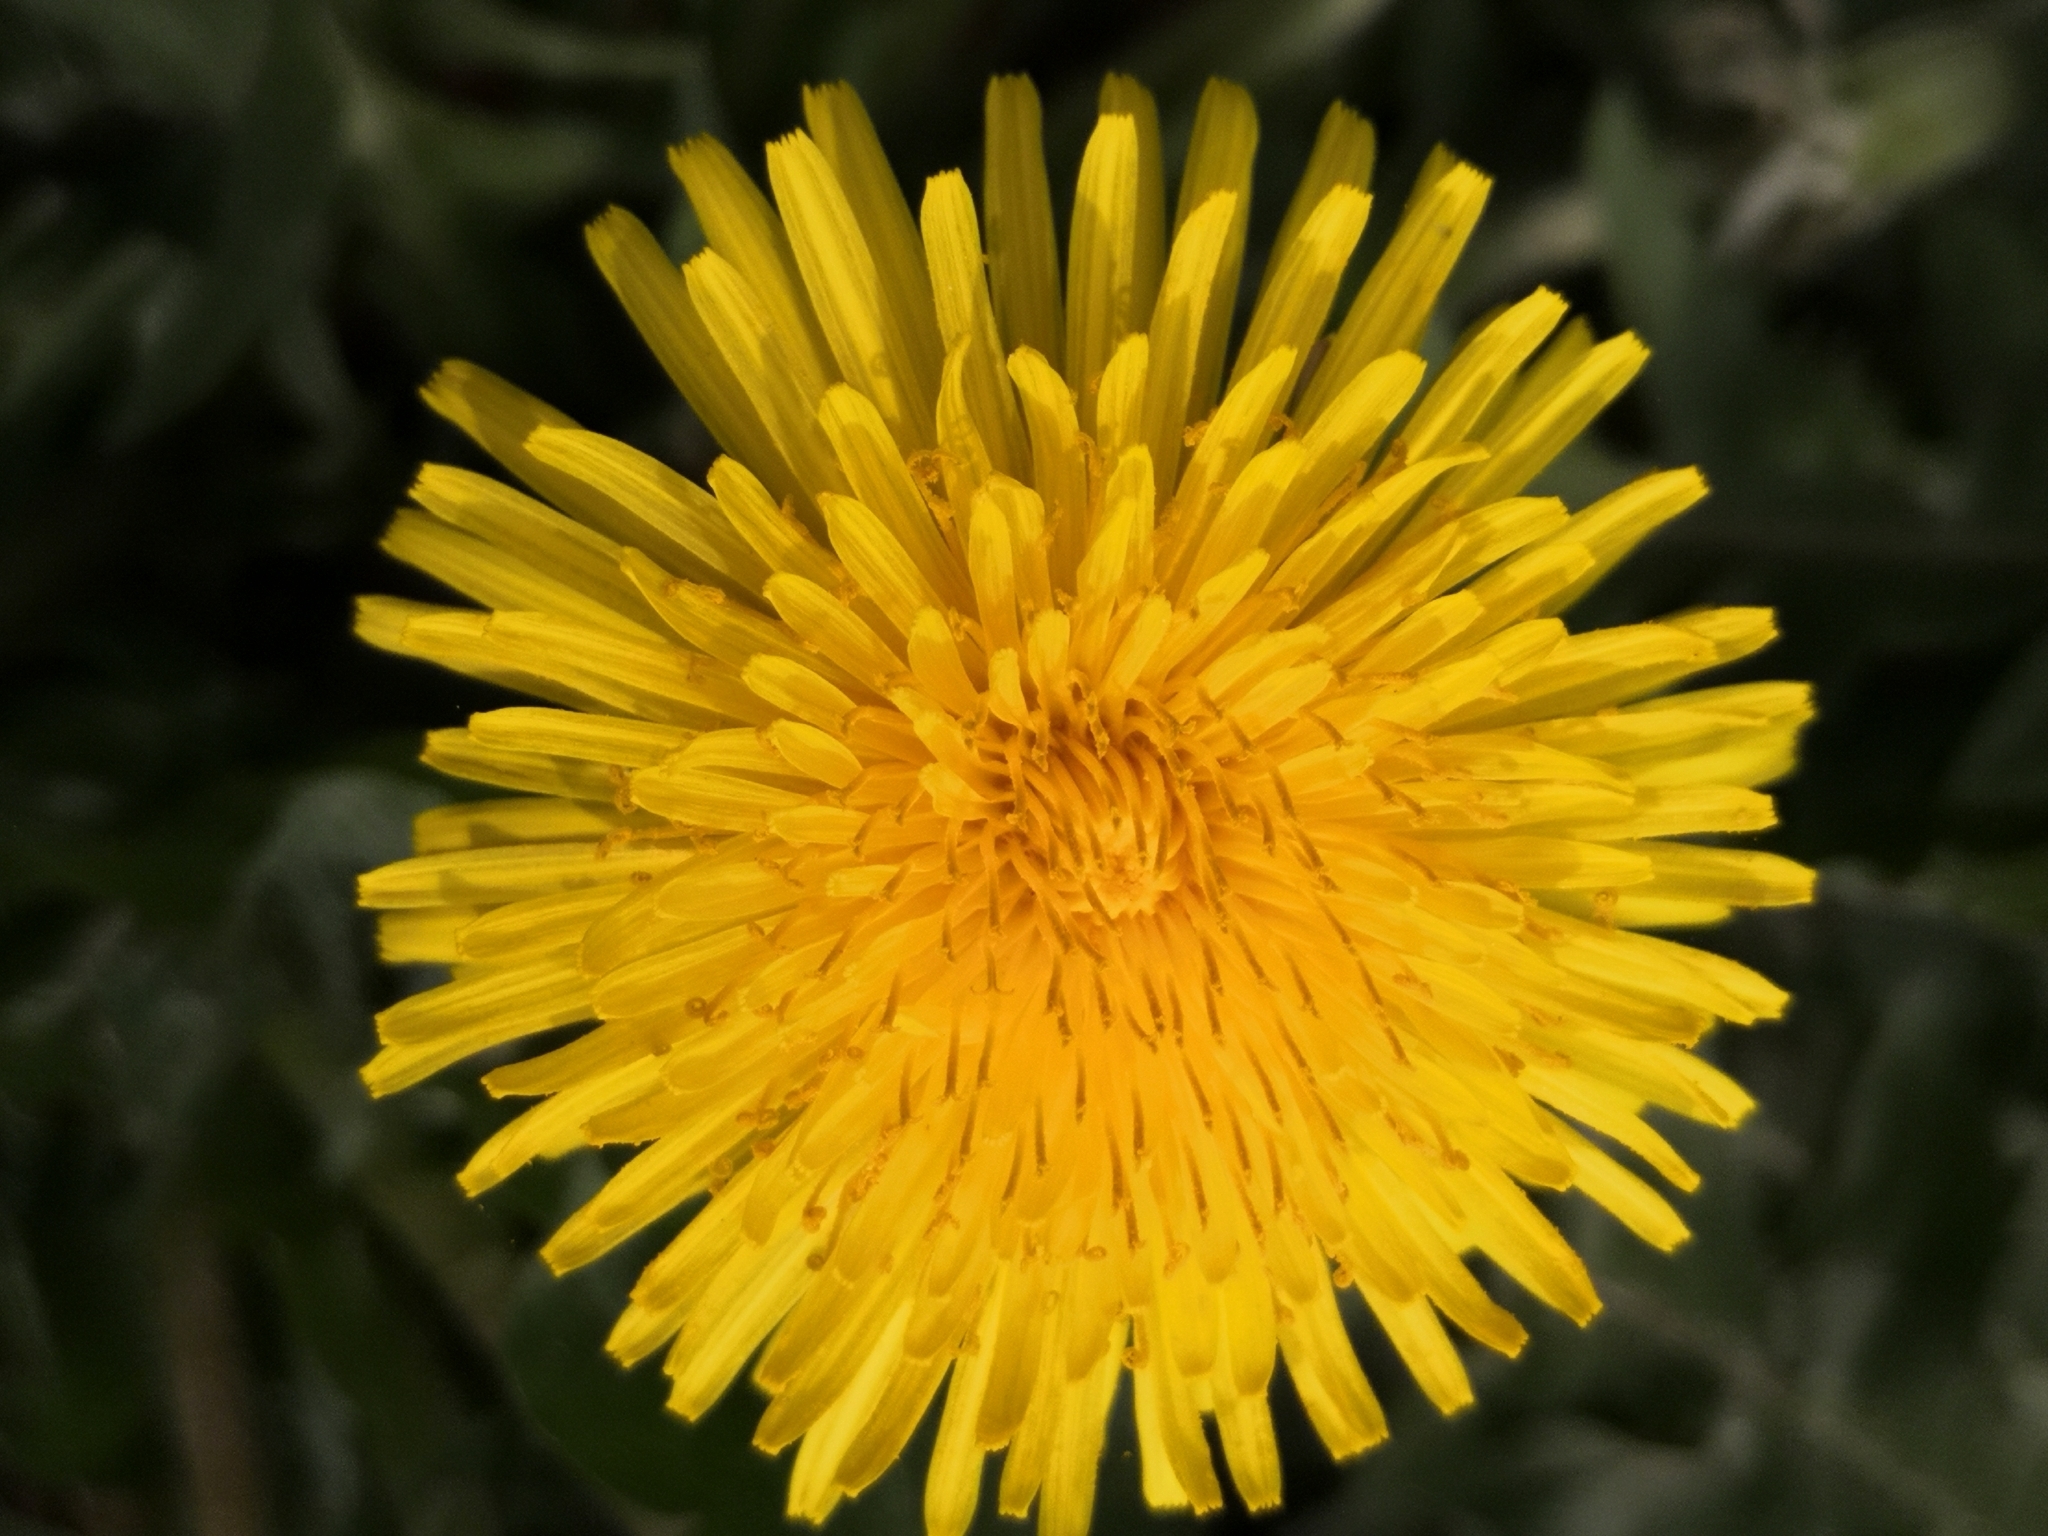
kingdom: Plantae
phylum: Tracheophyta
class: Magnoliopsida
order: Asterales
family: Asteraceae
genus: Taraxacum
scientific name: Taraxacum
